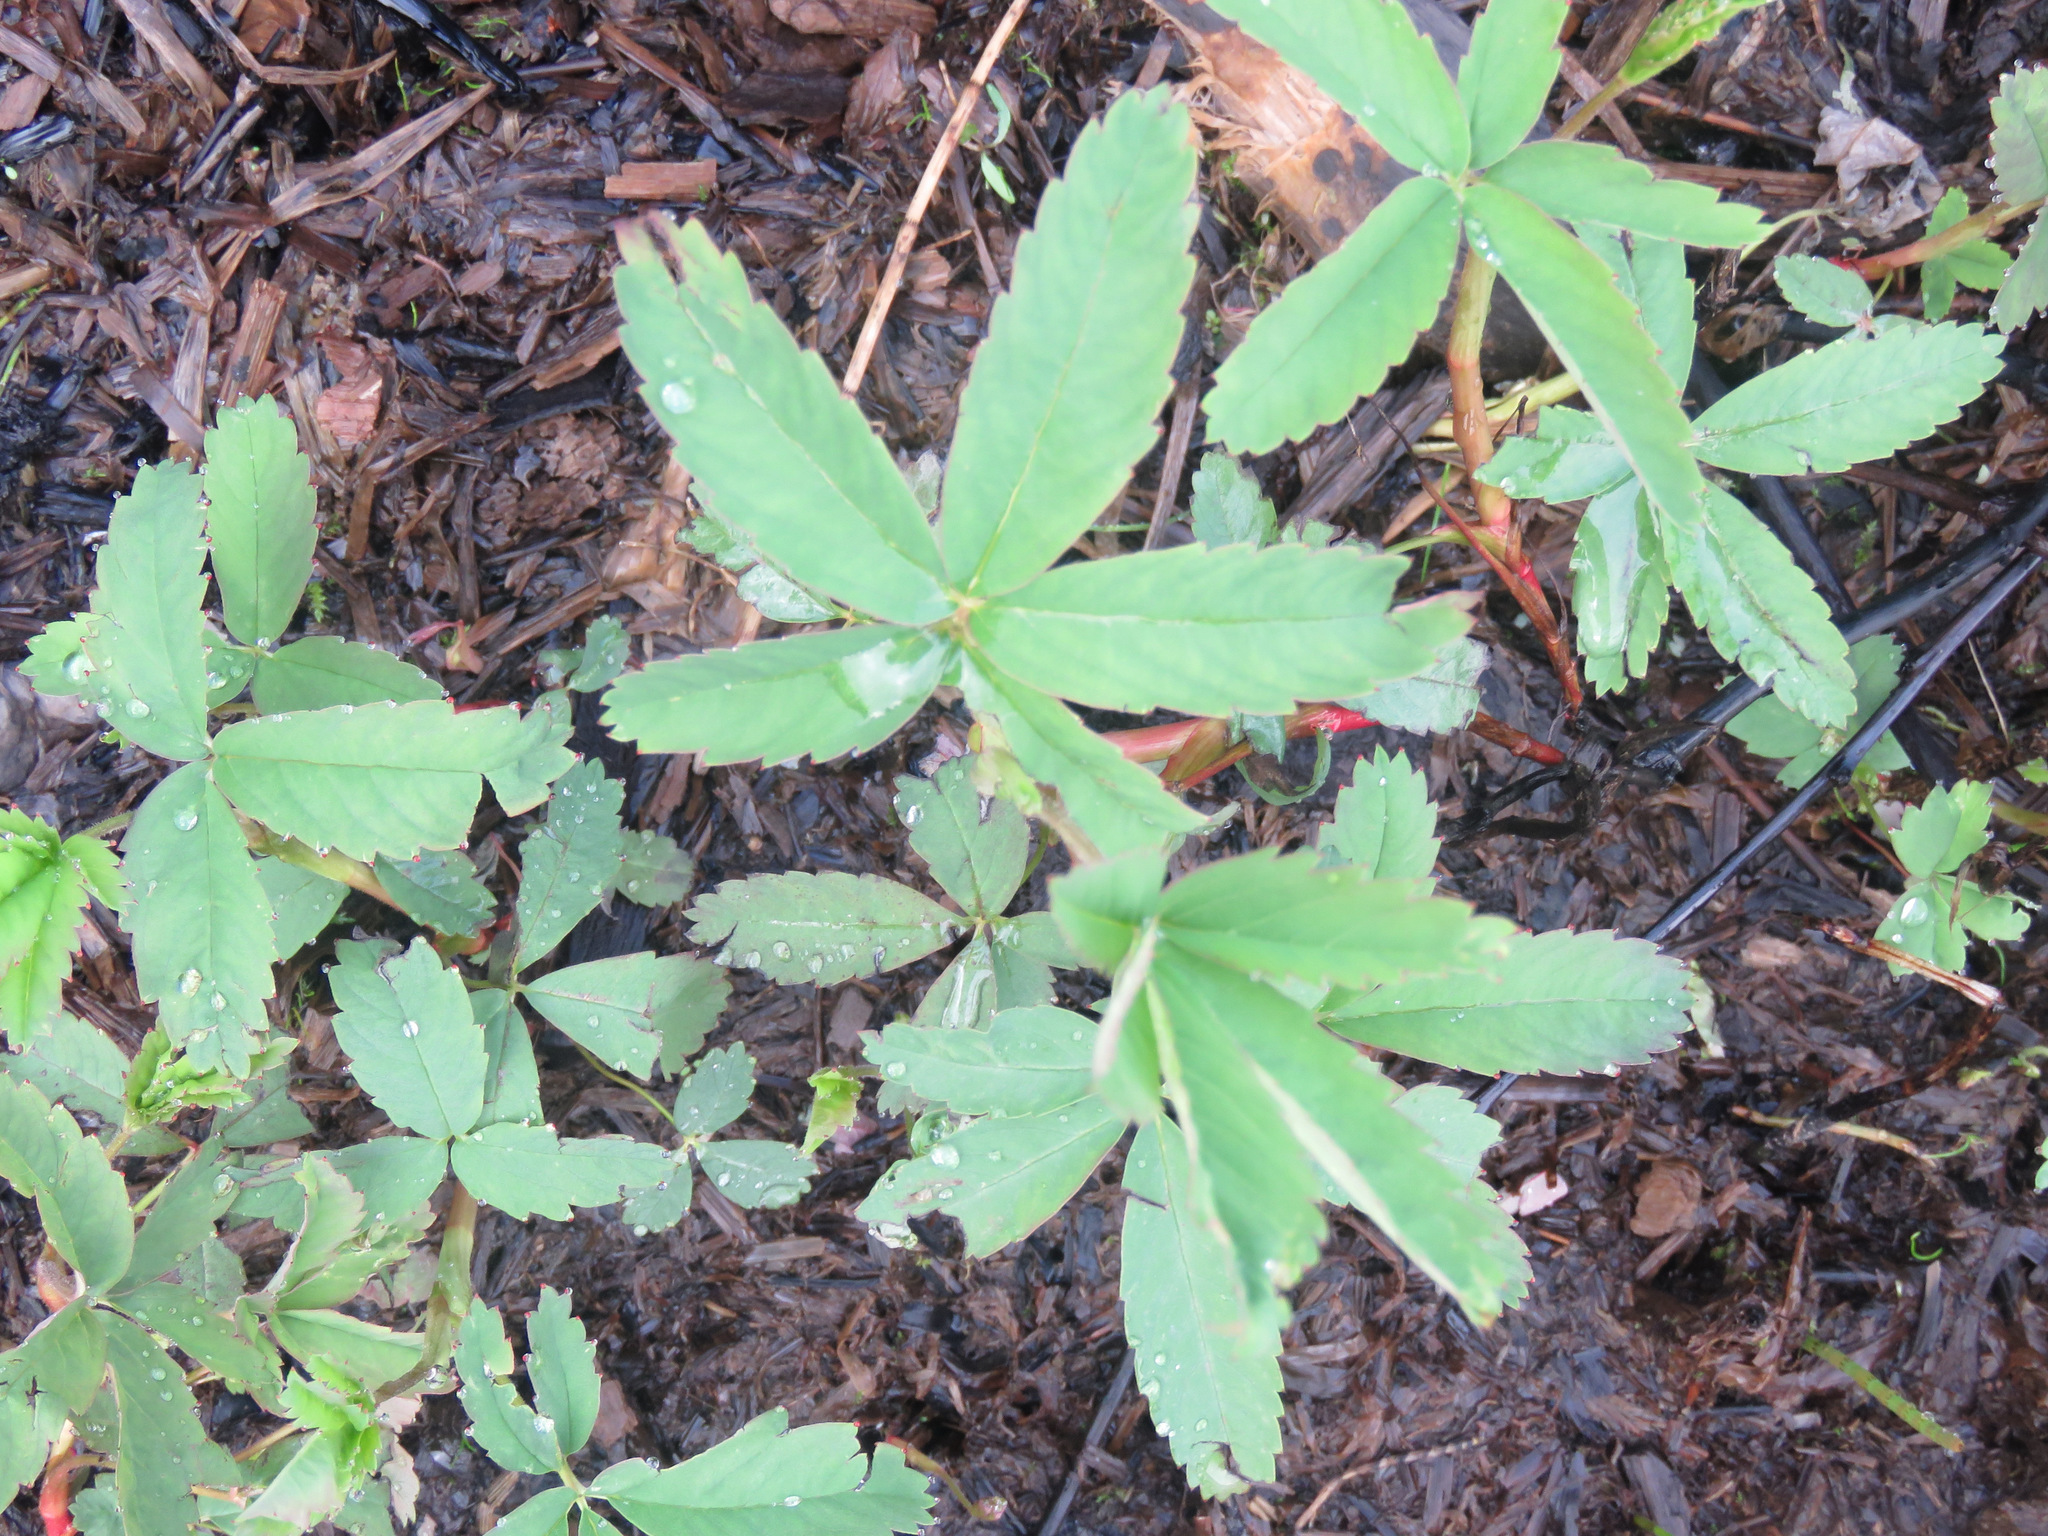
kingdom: Plantae
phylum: Tracheophyta
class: Magnoliopsida
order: Rosales
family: Rosaceae
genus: Comarum
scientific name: Comarum palustre
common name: Marsh cinquefoil
